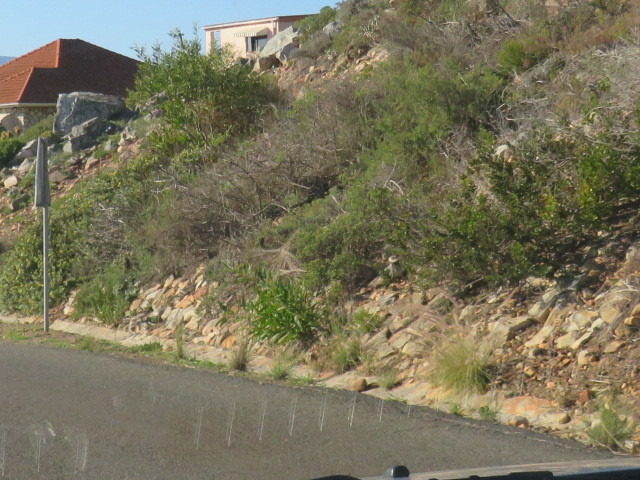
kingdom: Plantae
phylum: Tracheophyta
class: Magnoliopsida
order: Fabales
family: Fabaceae
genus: Acacia
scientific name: Acacia saligna
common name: Orange wattle
